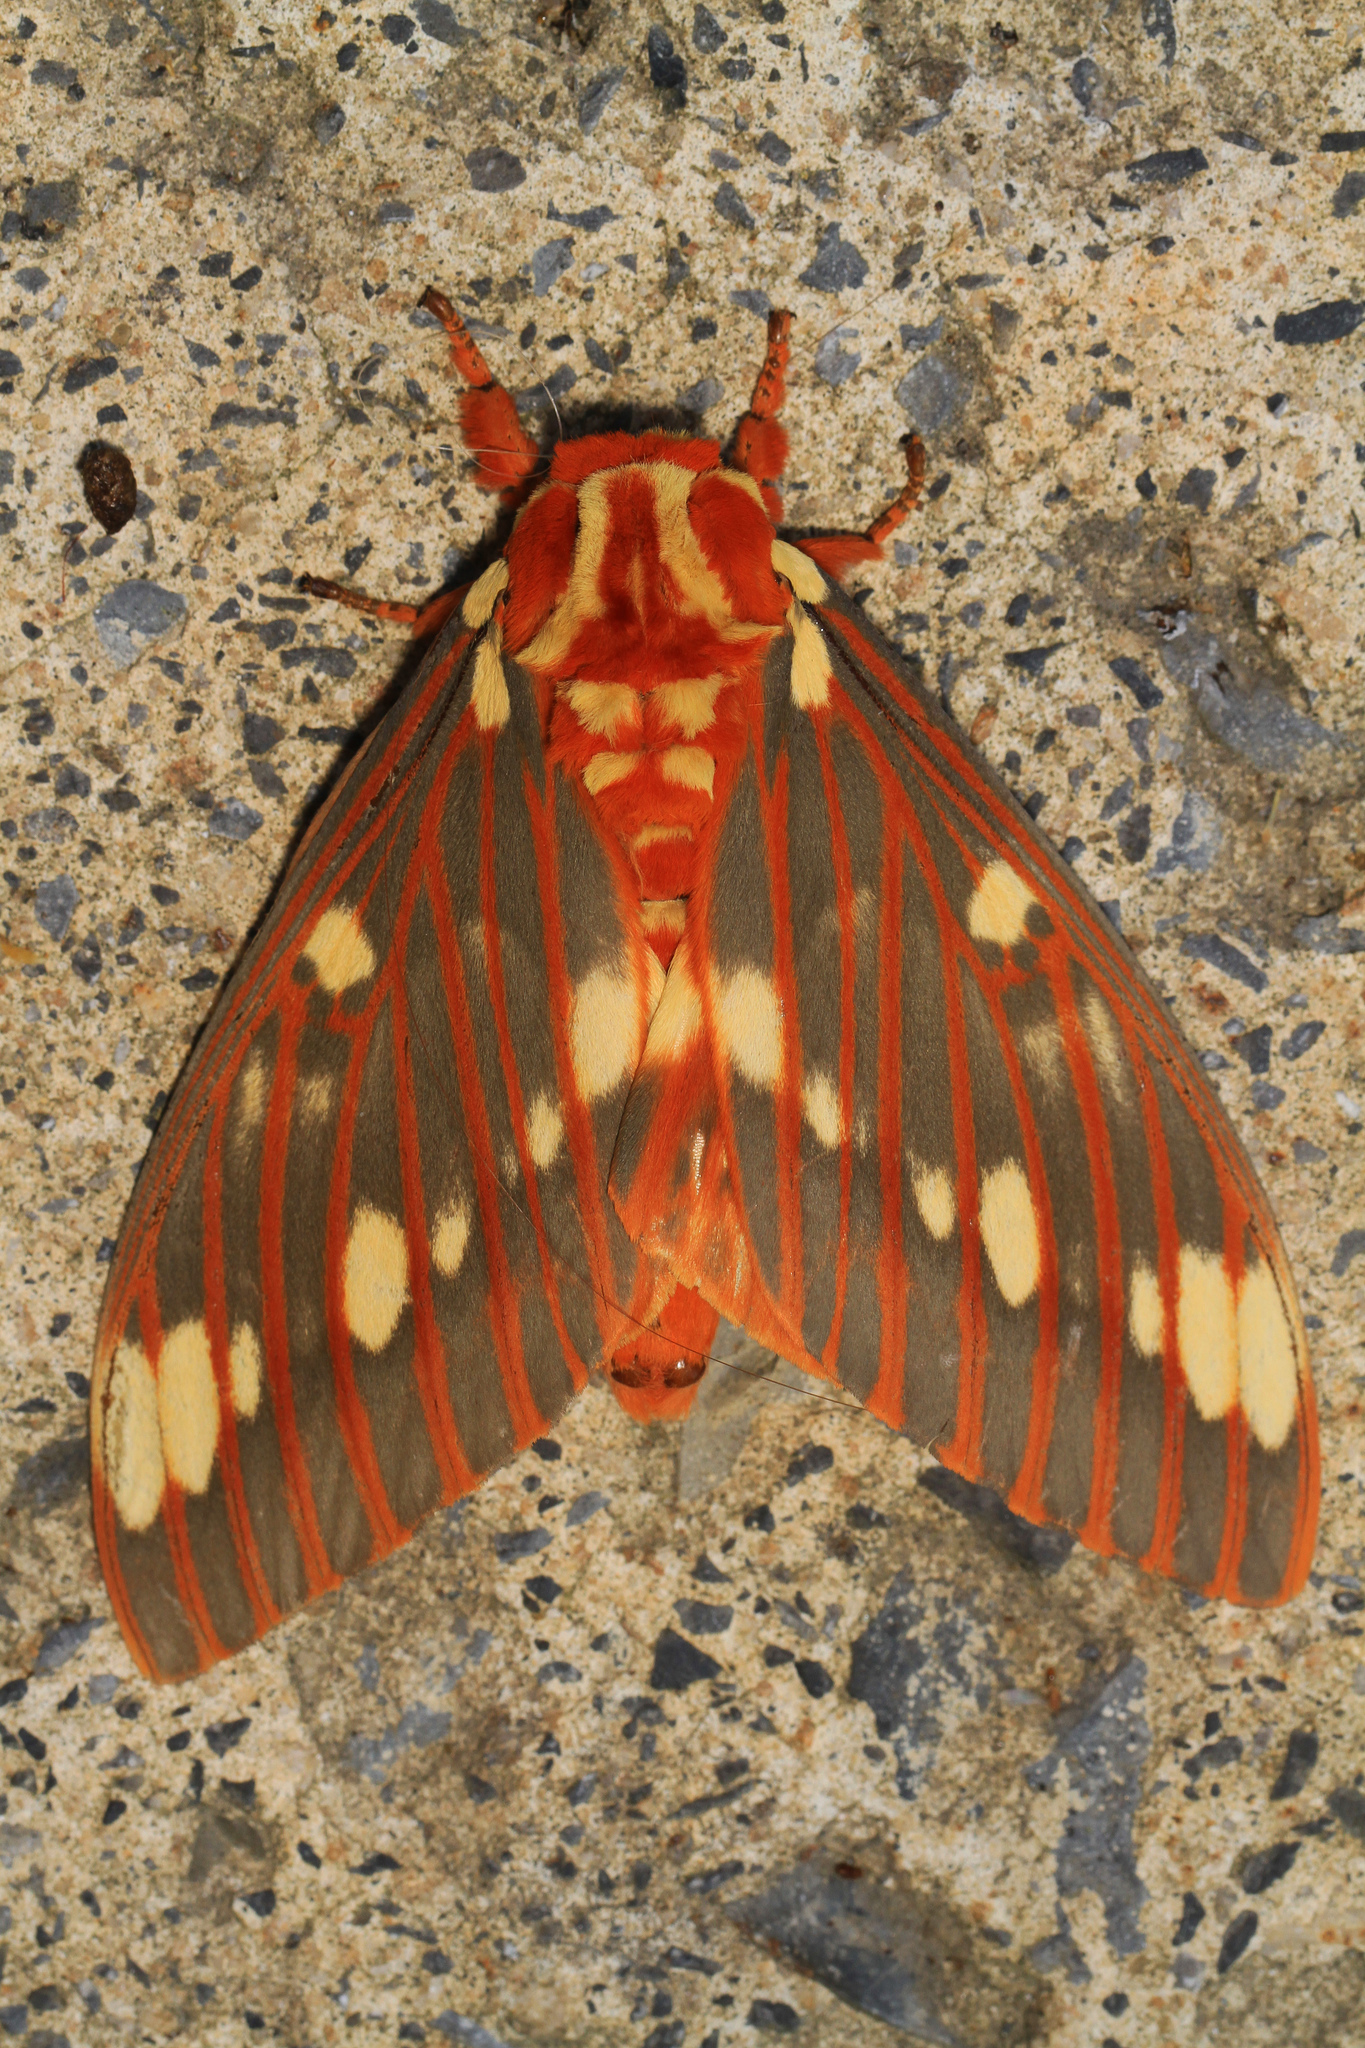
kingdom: Animalia
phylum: Arthropoda
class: Insecta
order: Lepidoptera
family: Saturniidae
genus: Citheronia
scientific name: Citheronia regalis
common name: Hickory horned devil
